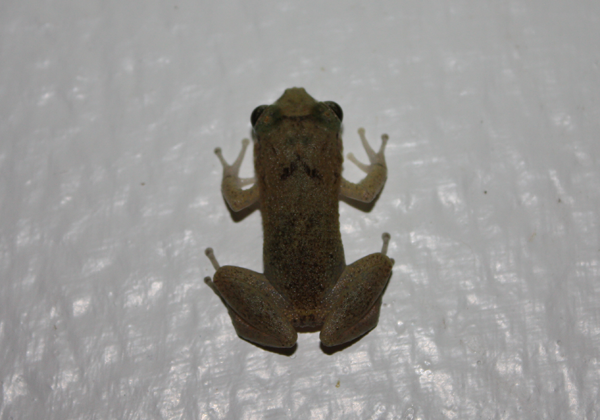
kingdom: Animalia
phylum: Chordata
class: Amphibia
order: Anura
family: Eleutherodactylidae
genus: Eleutherodactylus
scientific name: Eleutherodactylus johnstonei
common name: Johnstone's robber frog
